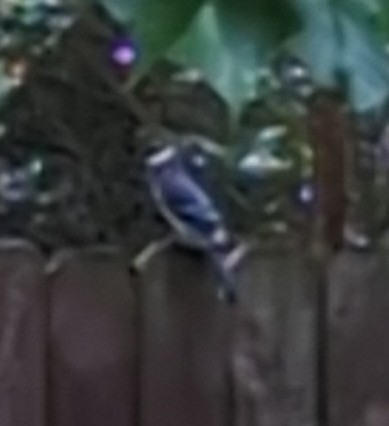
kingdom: Animalia
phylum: Chordata
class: Aves
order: Passeriformes
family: Corvidae
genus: Cyanocitta
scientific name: Cyanocitta cristata
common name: Blue jay
